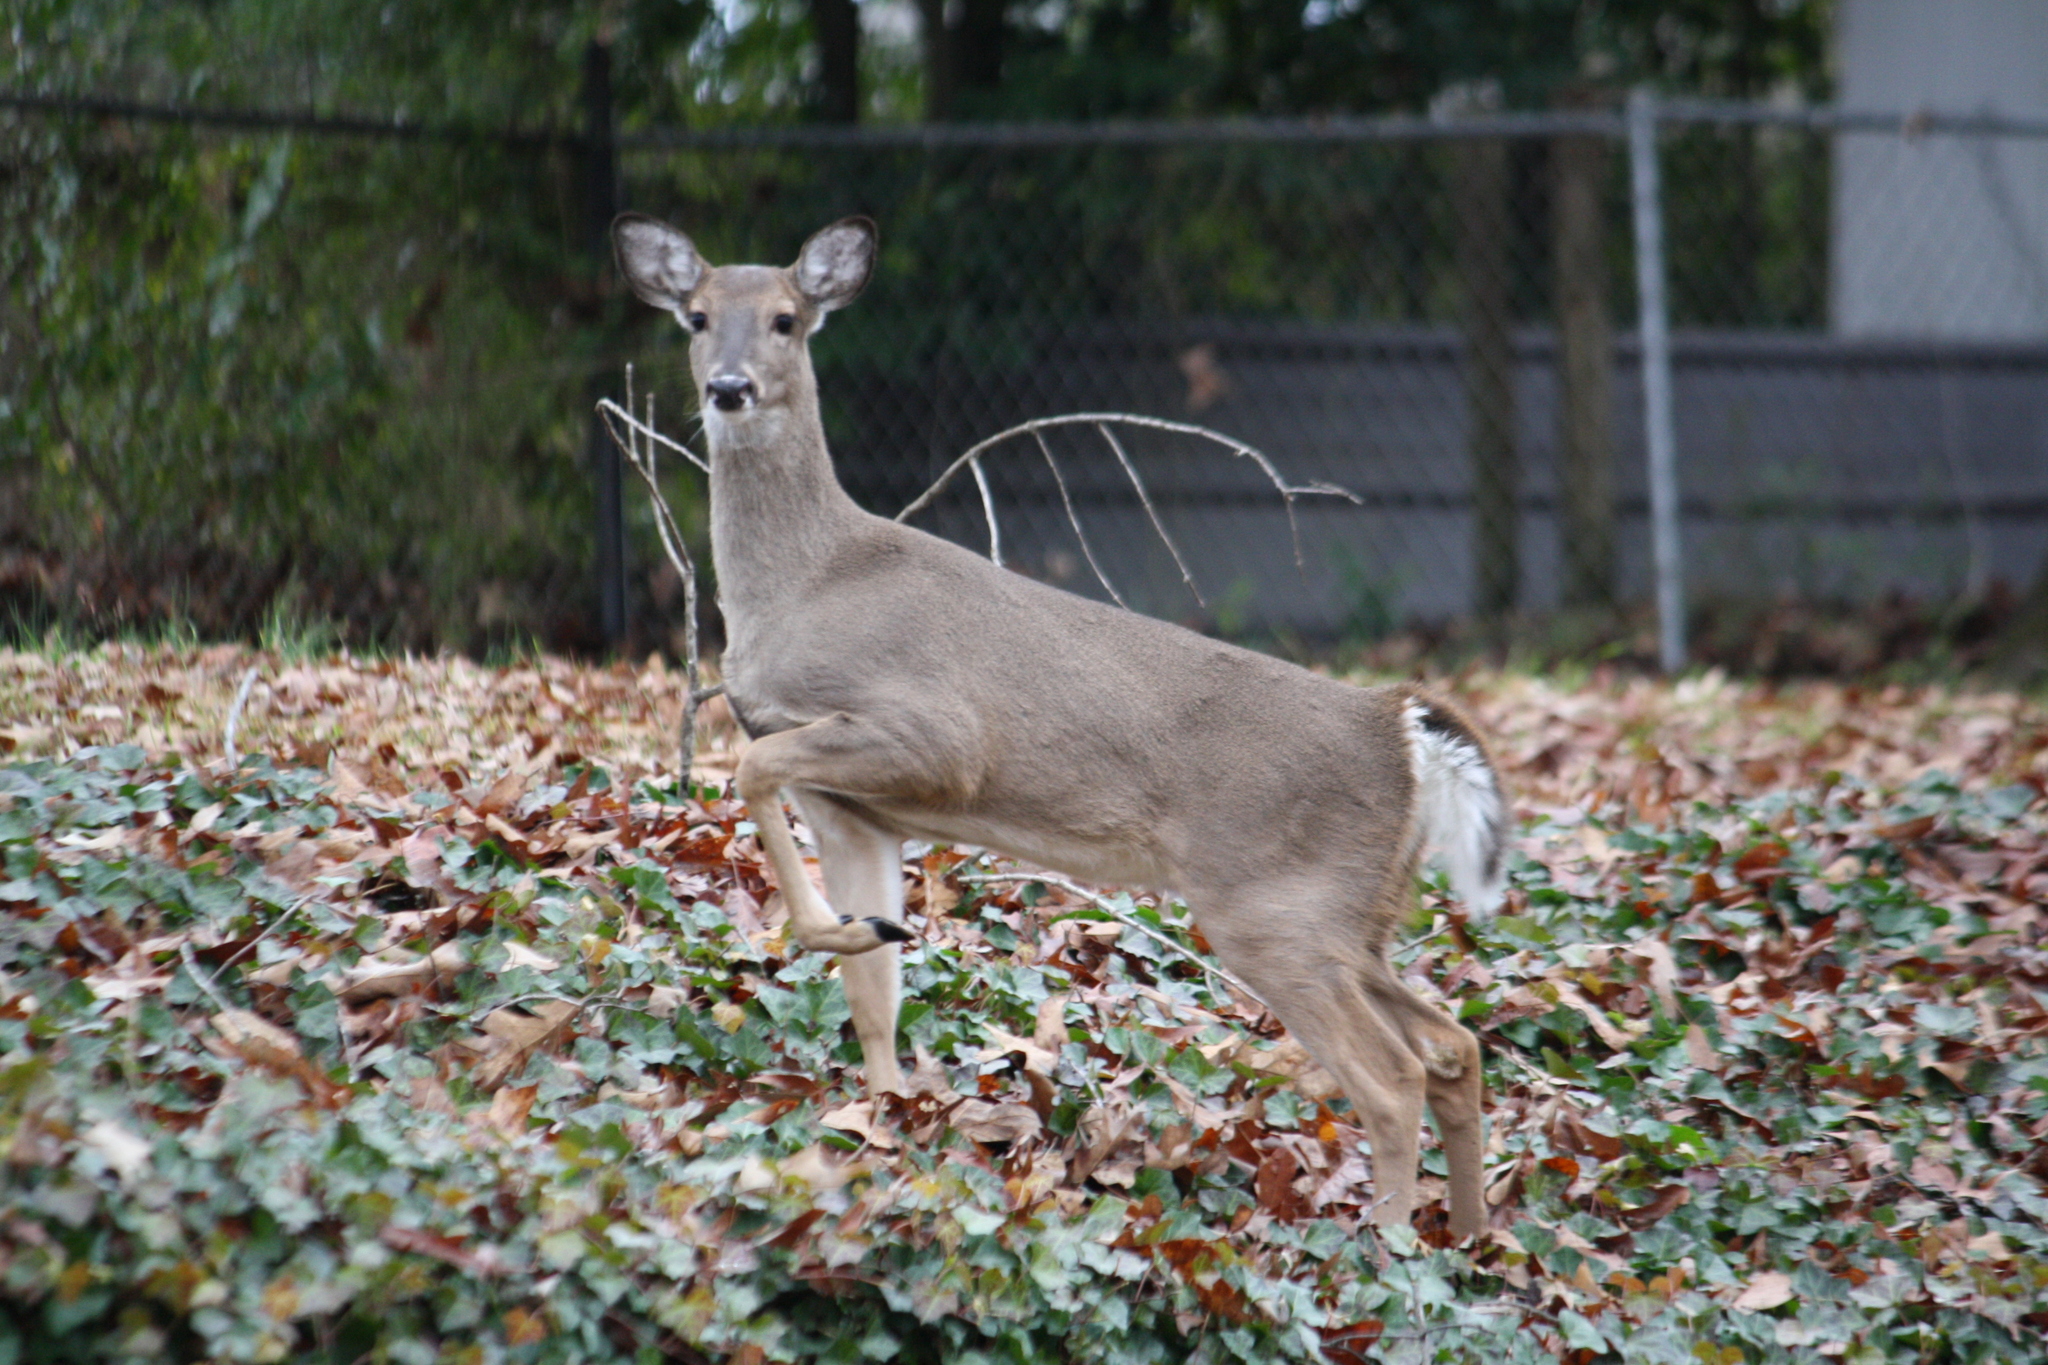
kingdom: Animalia
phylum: Chordata
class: Mammalia
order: Artiodactyla
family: Cervidae
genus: Odocoileus
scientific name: Odocoileus virginianus
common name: White-tailed deer
